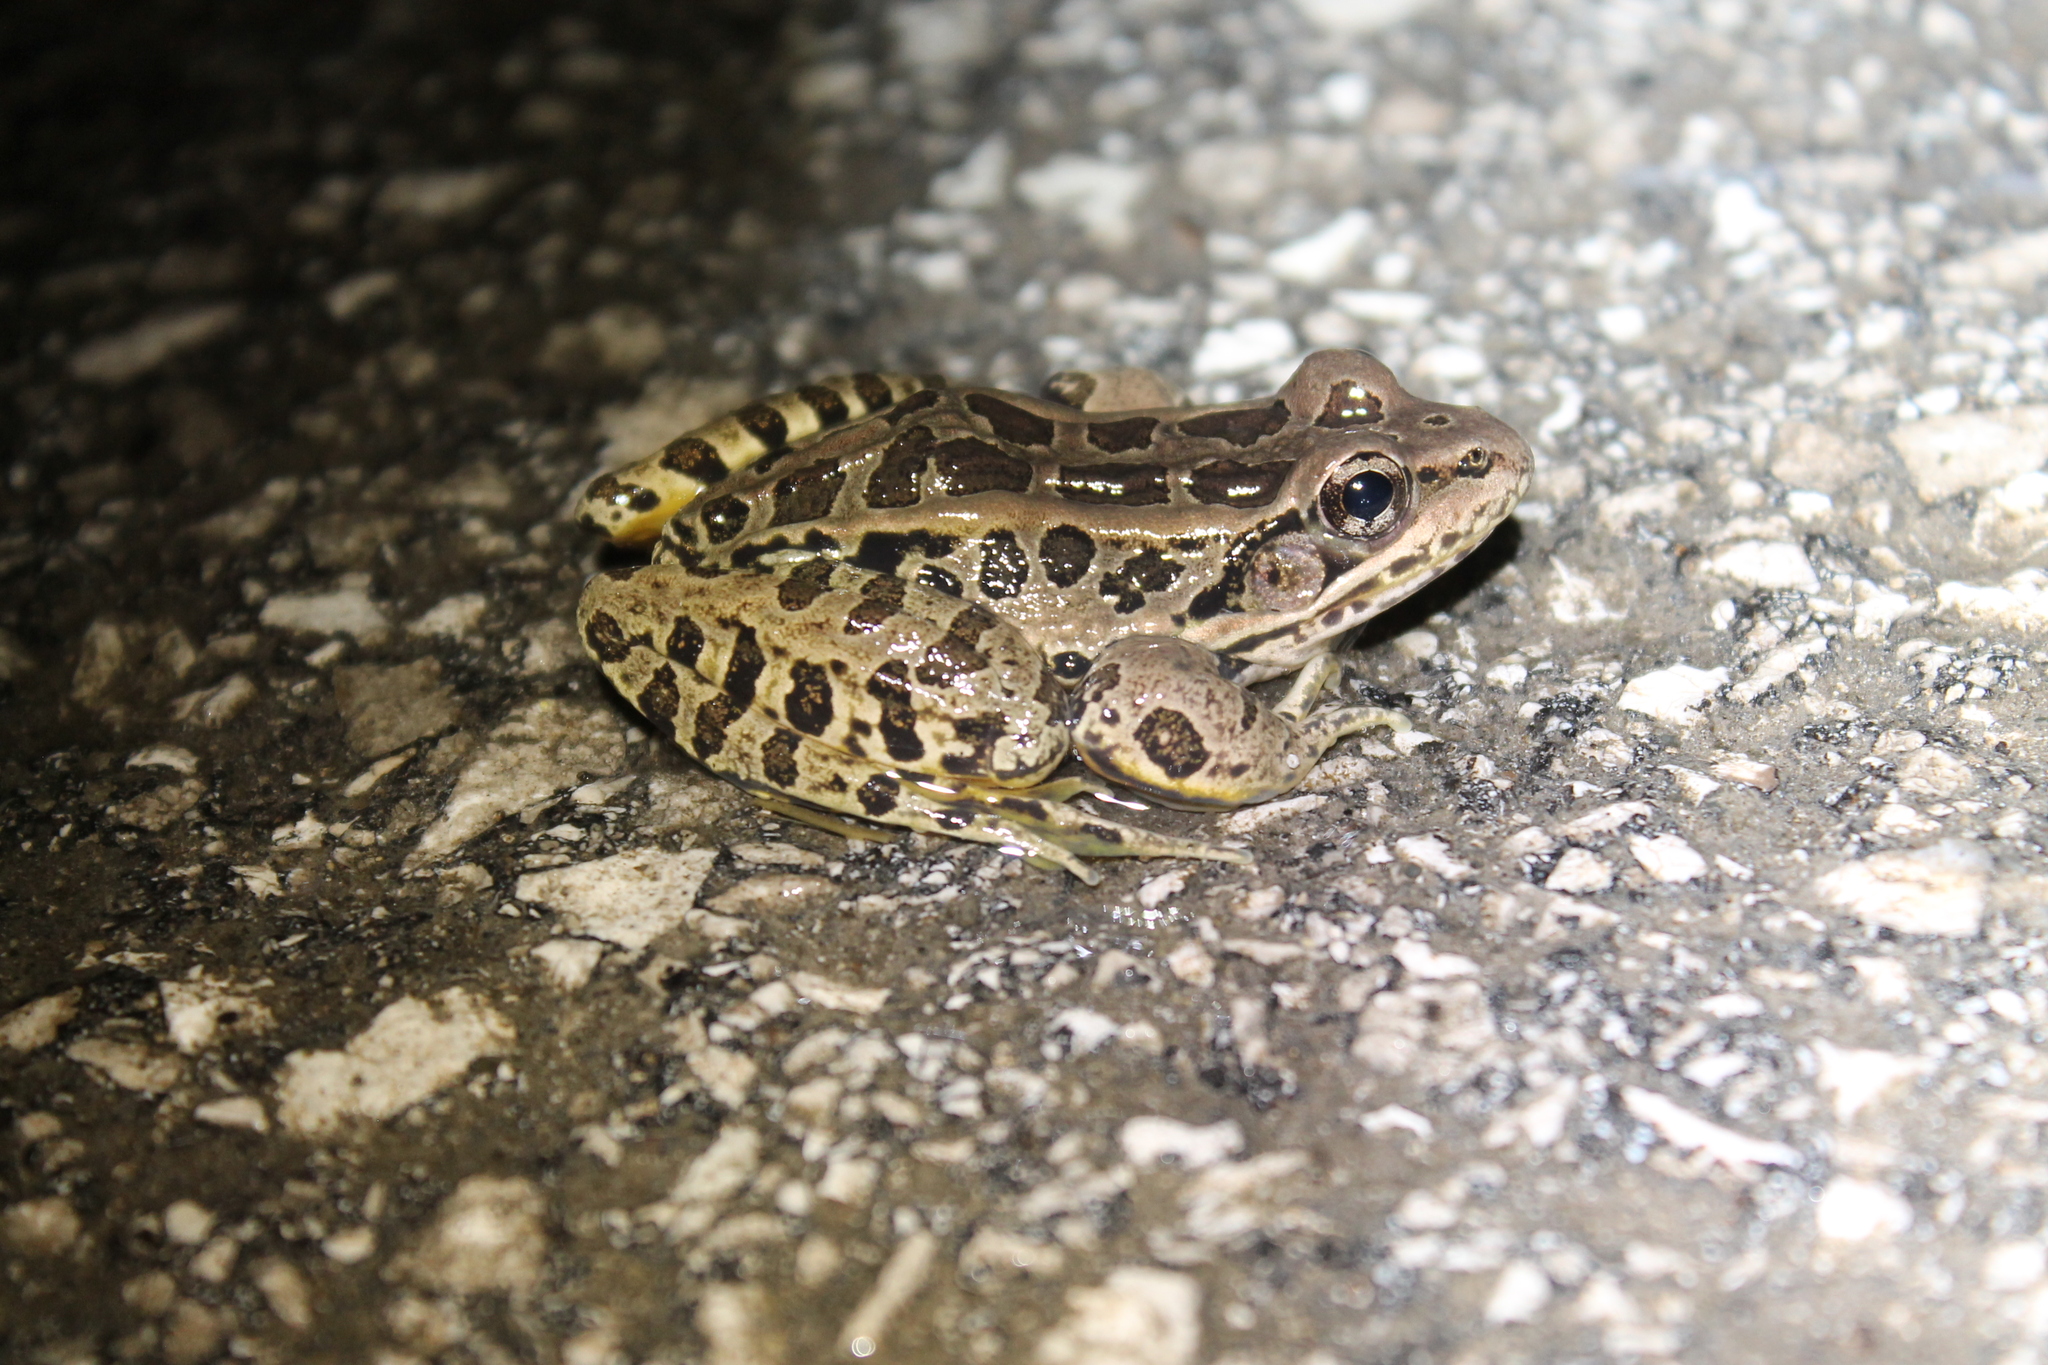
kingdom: Animalia
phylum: Chordata
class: Amphibia
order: Anura
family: Ranidae
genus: Lithobates
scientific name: Lithobates palustris
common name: Pickerel frog
